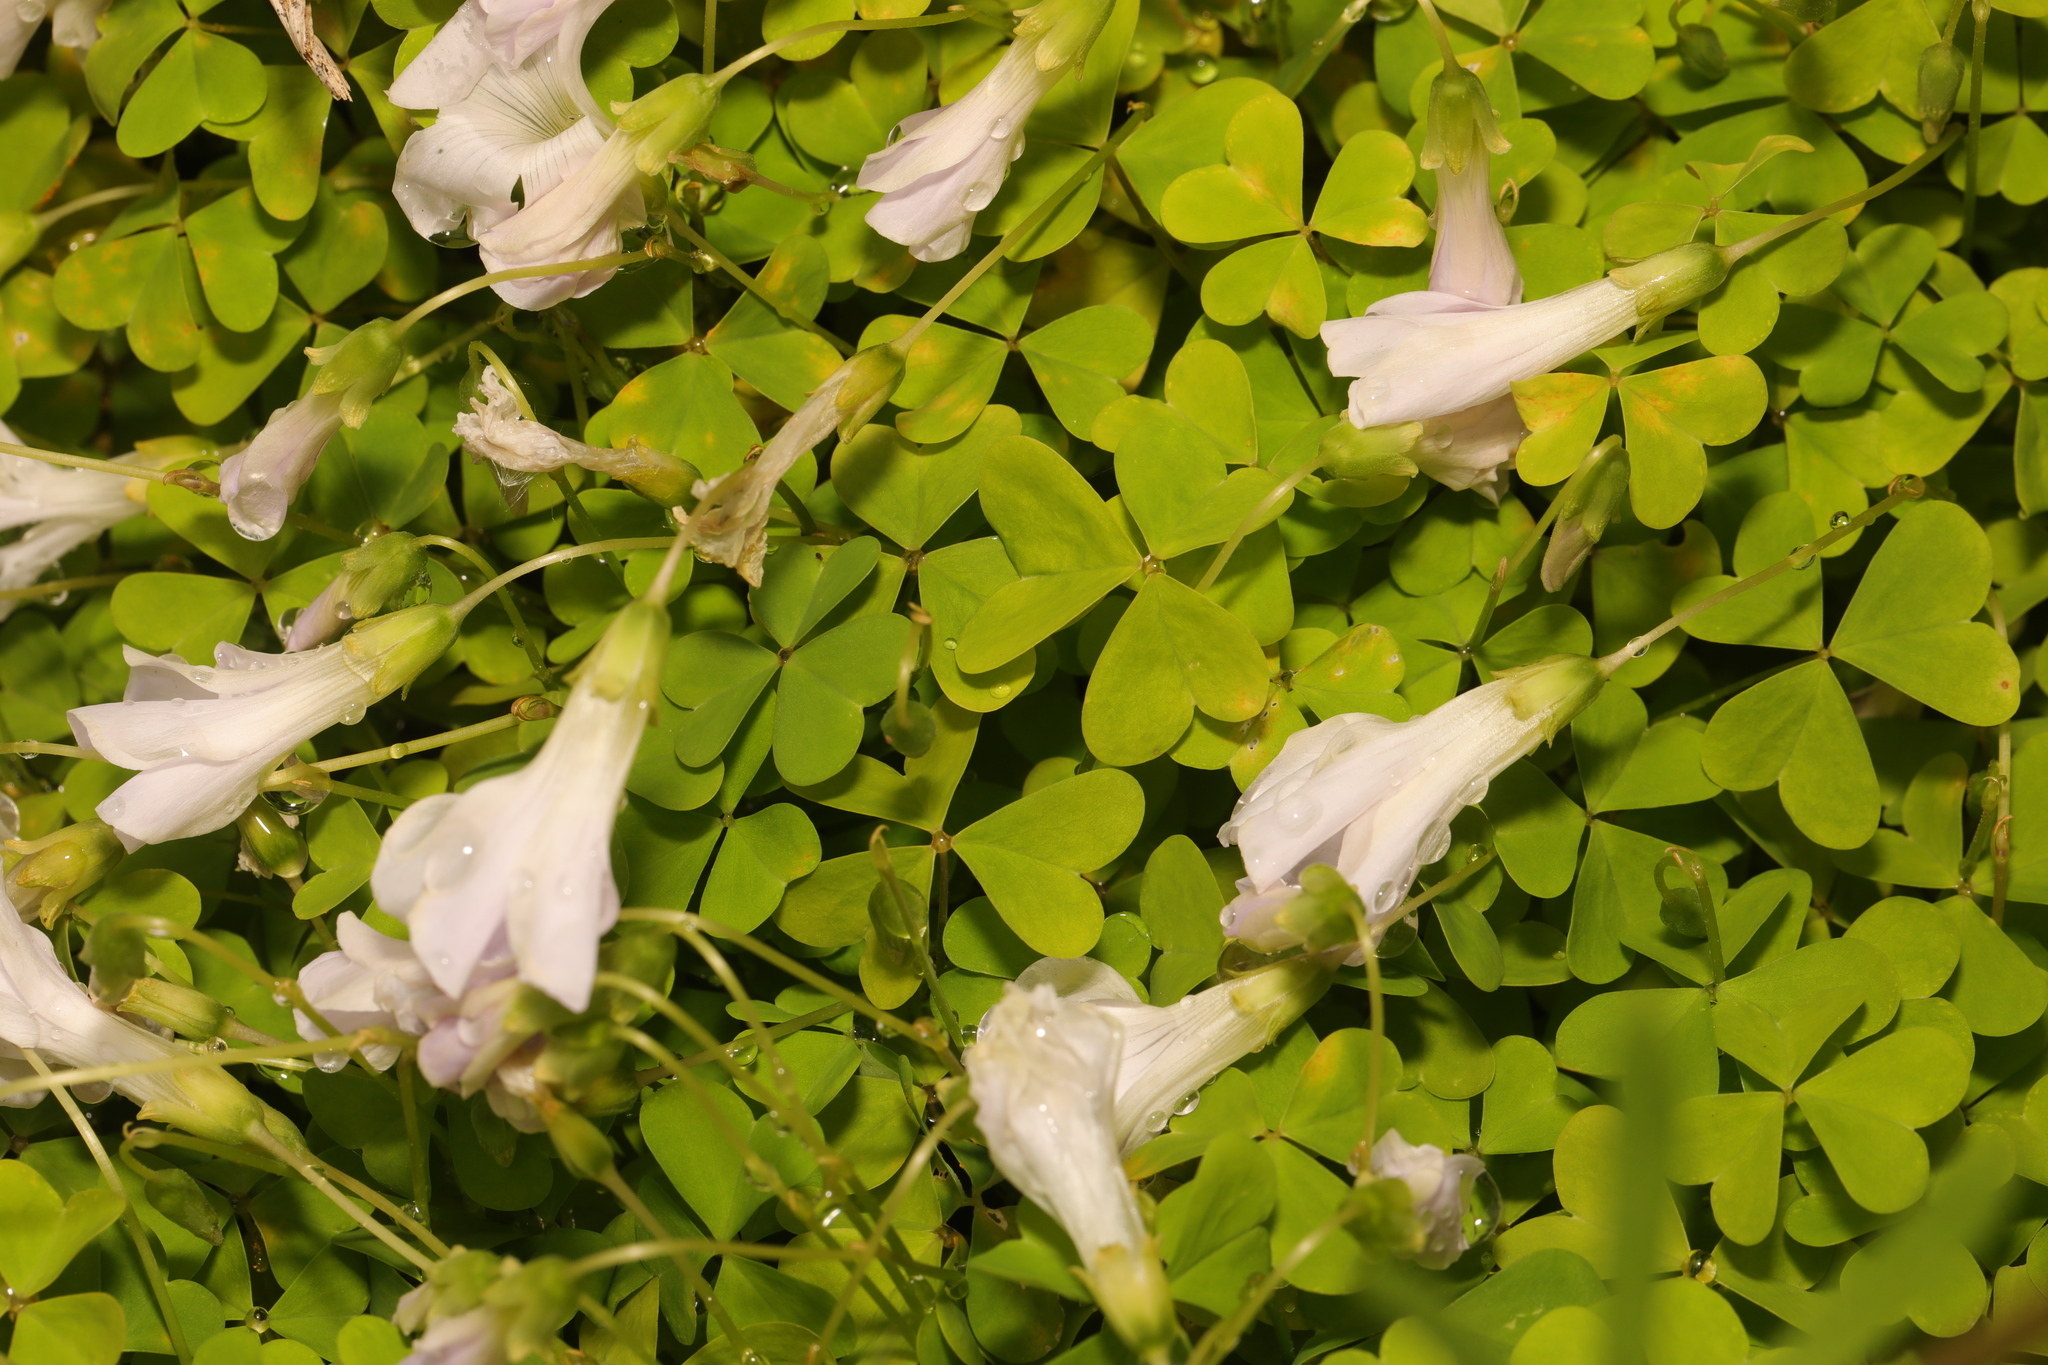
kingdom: Plantae
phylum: Tracheophyta
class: Magnoliopsida
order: Oxalidales
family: Oxalidaceae
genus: Oxalis
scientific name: Oxalis acetosella
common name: Wood-sorrel
